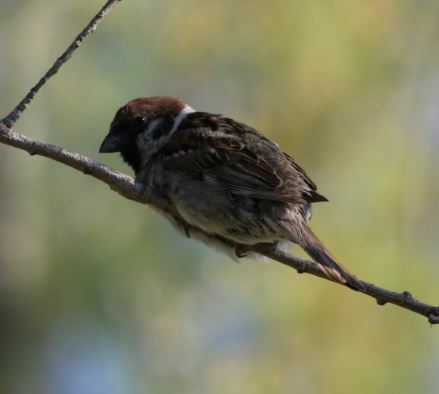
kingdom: Animalia
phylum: Chordata
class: Aves
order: Passeriformes
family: Passeridae
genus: Passer
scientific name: Passer montanus
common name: Eurasian tree sparrow
